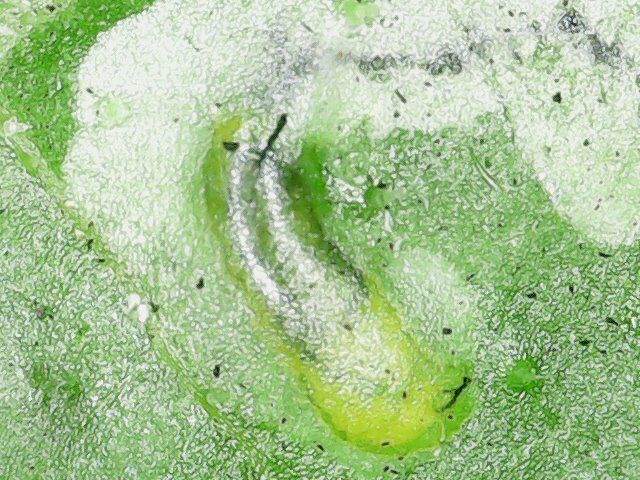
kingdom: Animalia
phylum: Arthropoda
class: Insecta
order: Diptera
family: Agromyzidae
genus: Liriomyza
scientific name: Liriomyza bryoniae
